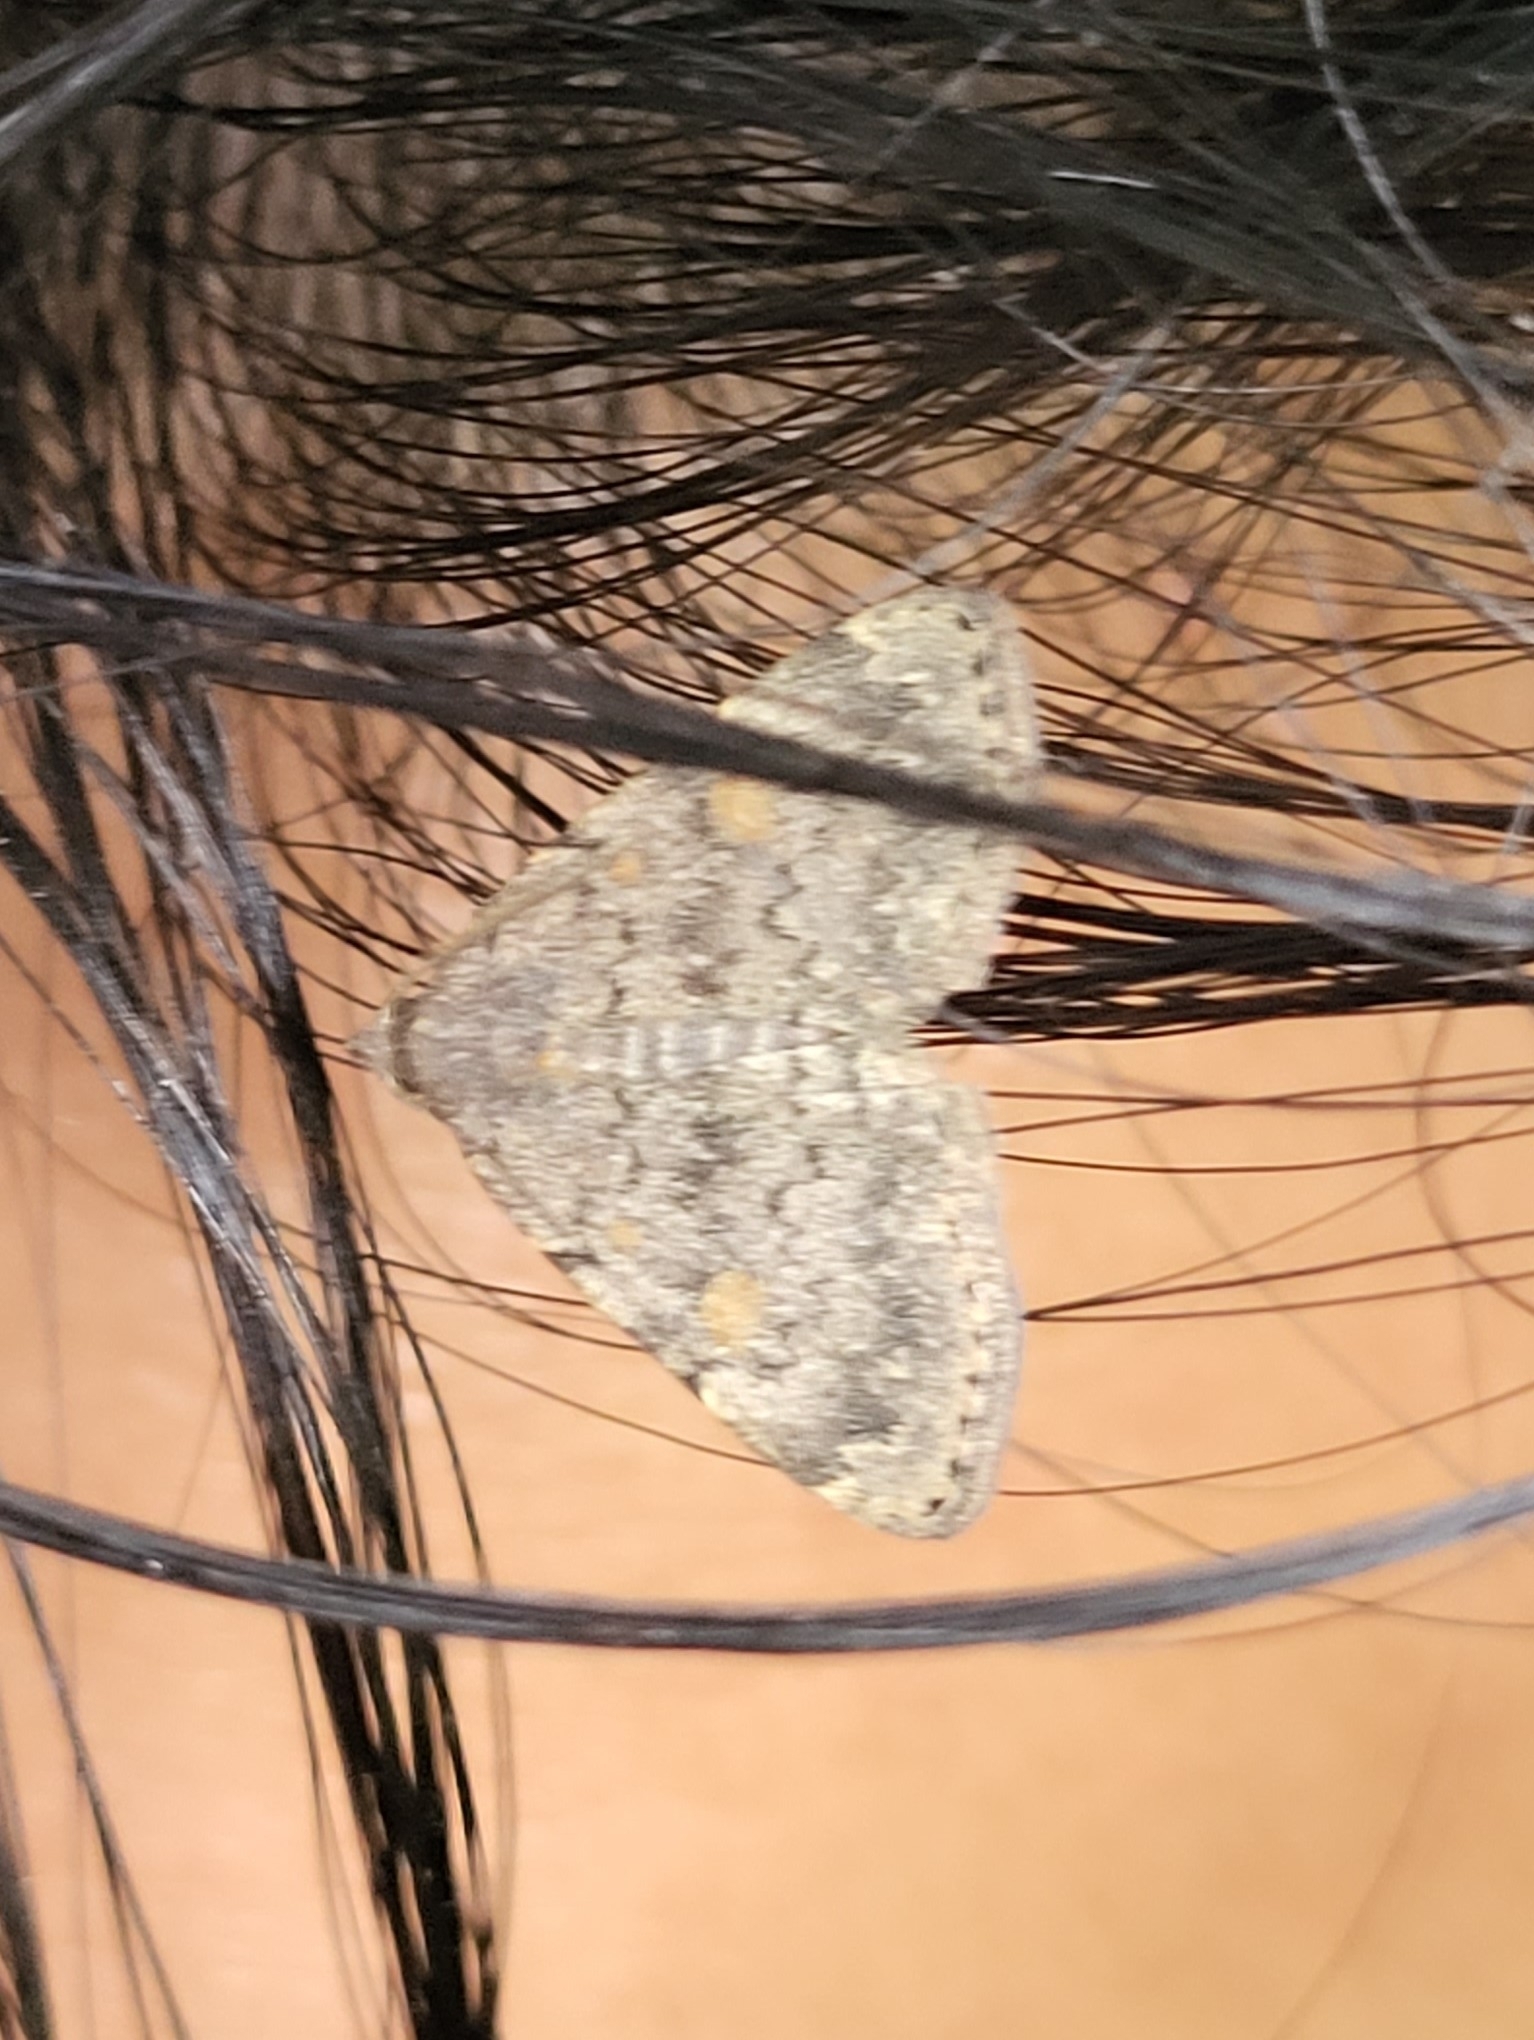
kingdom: Animalia
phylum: Arthropoda
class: Insecta
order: Lepidoptera
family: Erebidae
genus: Idia
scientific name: Idia aemula
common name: Common idia moth
